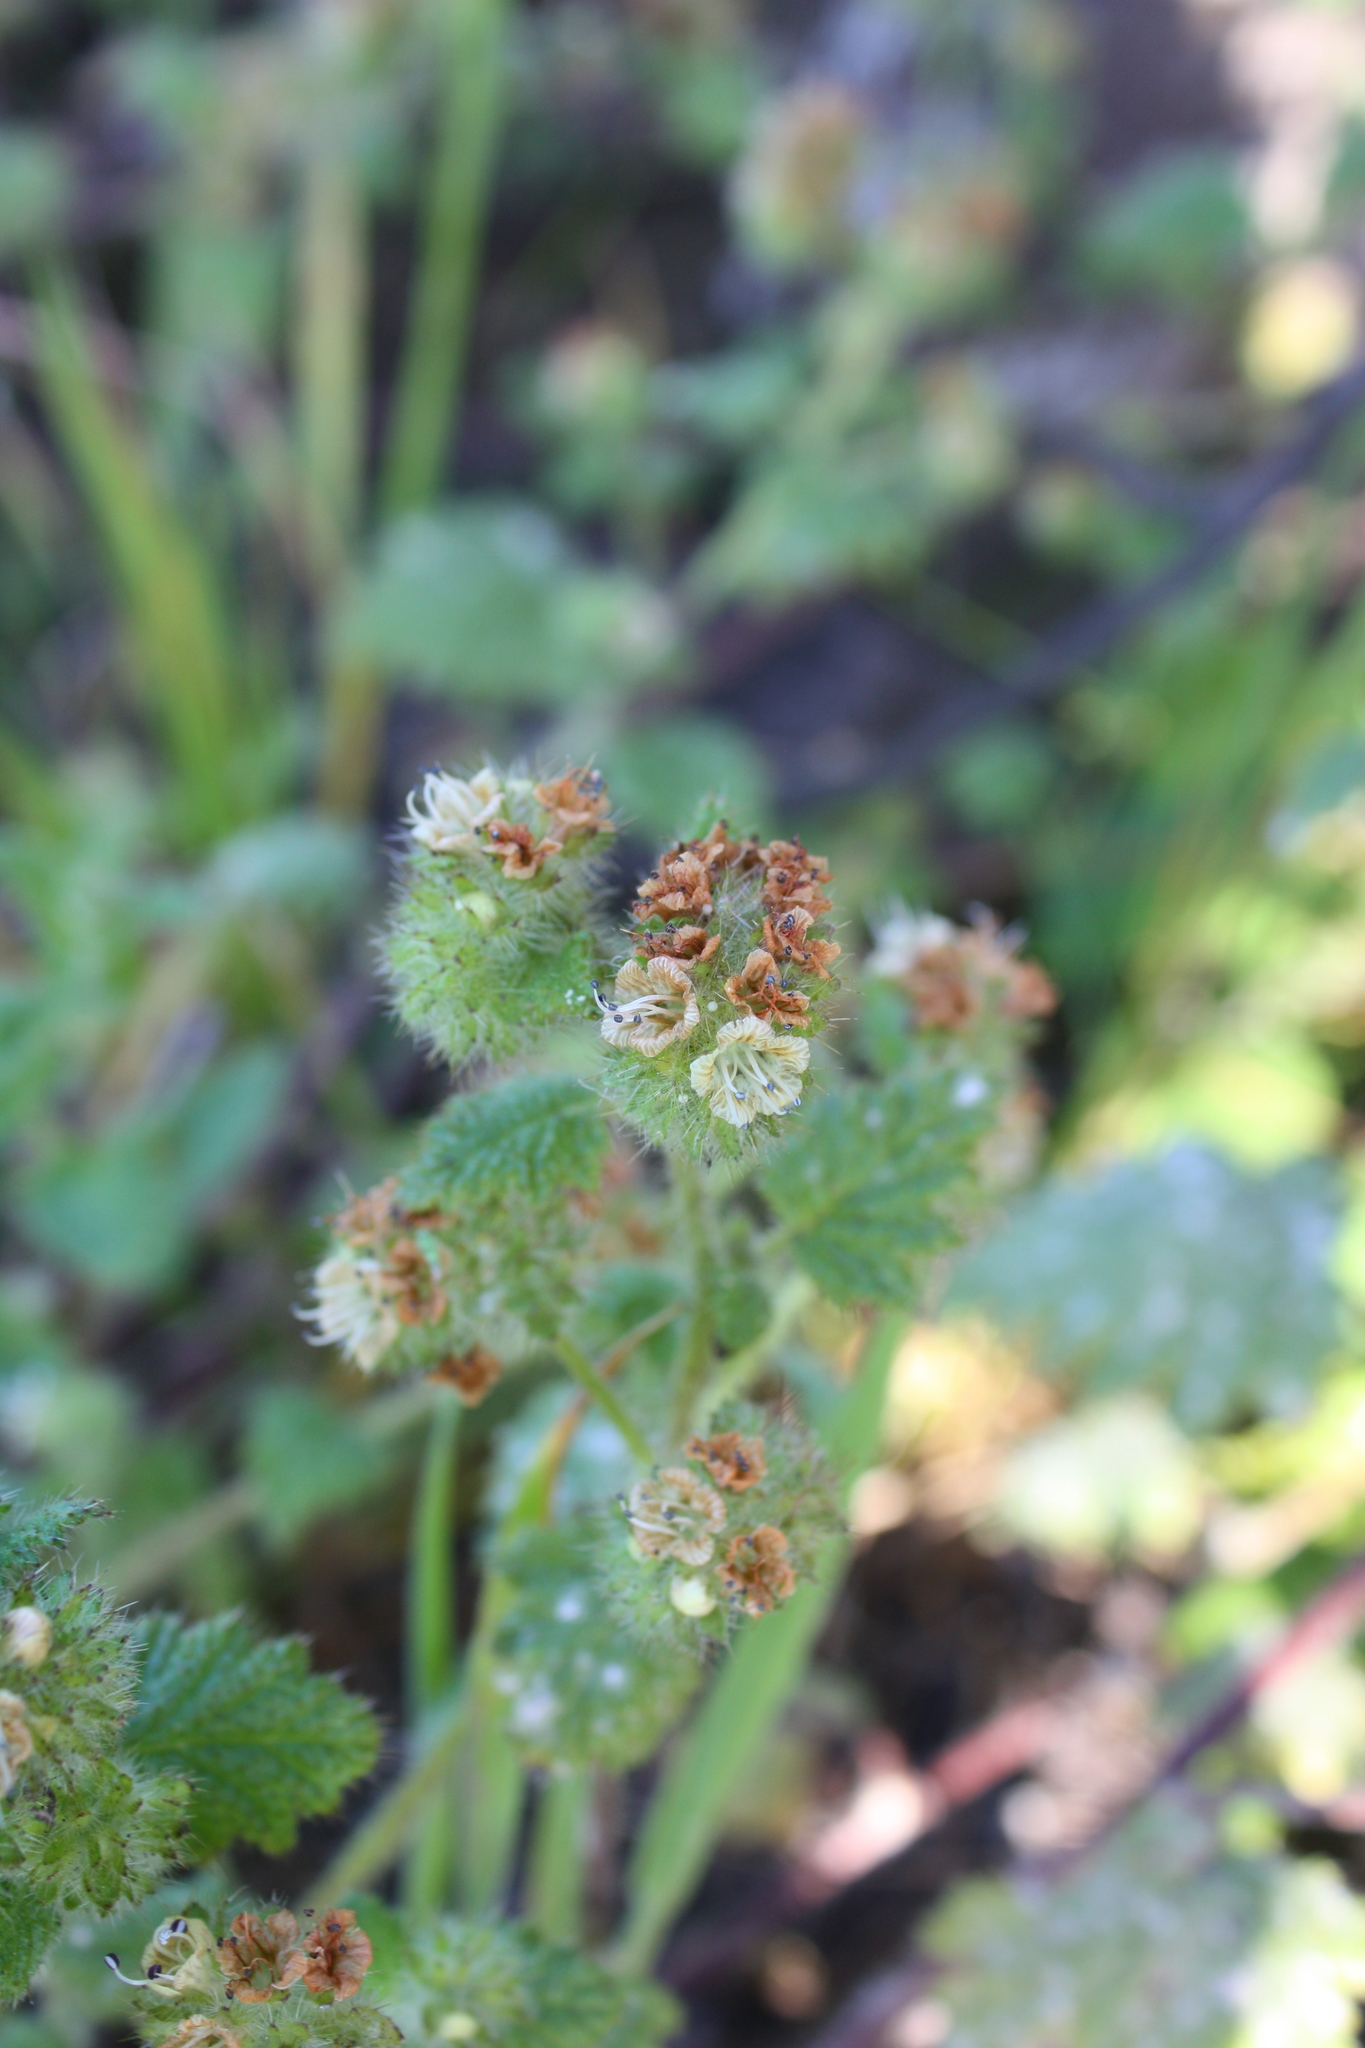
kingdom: Plantae
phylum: Tracheophyta
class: Magnoliopsida
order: Boraginales
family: Hydrophyllaceae
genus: Phacelia
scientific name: Phacelia malvifolia
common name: Mallow-leaf phacelia
